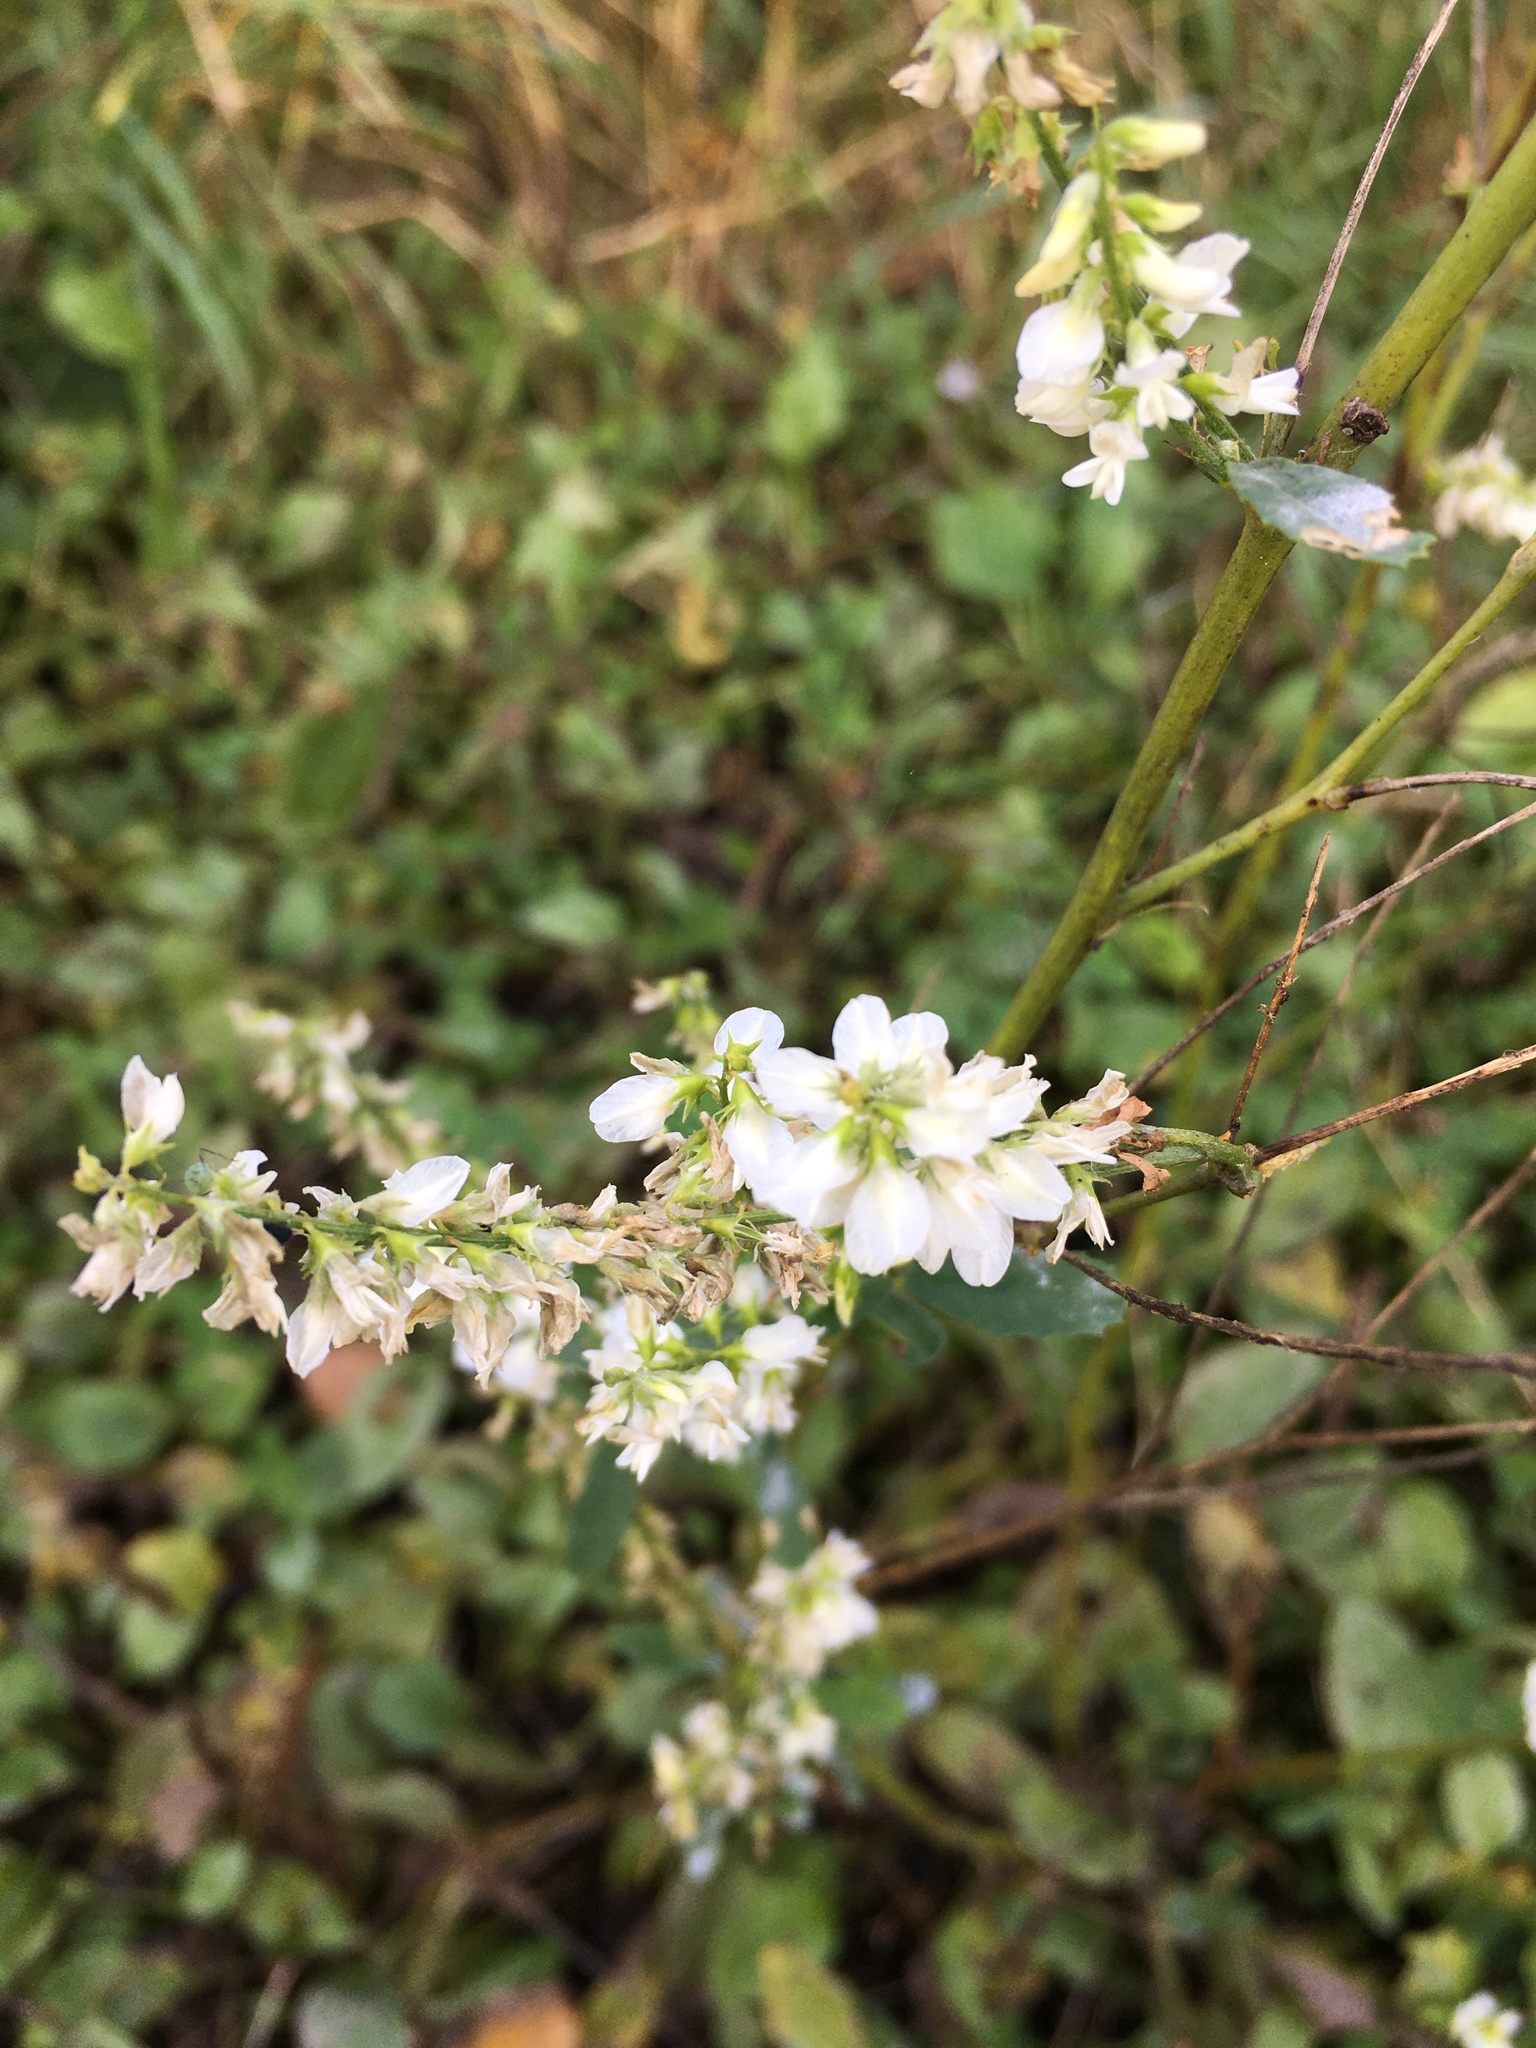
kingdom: Plantae
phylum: Tracheophyta
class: Magnoliopsida
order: Fabales
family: Fabaceae
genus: Melilotus
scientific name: Melilotus albus
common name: White melilot
